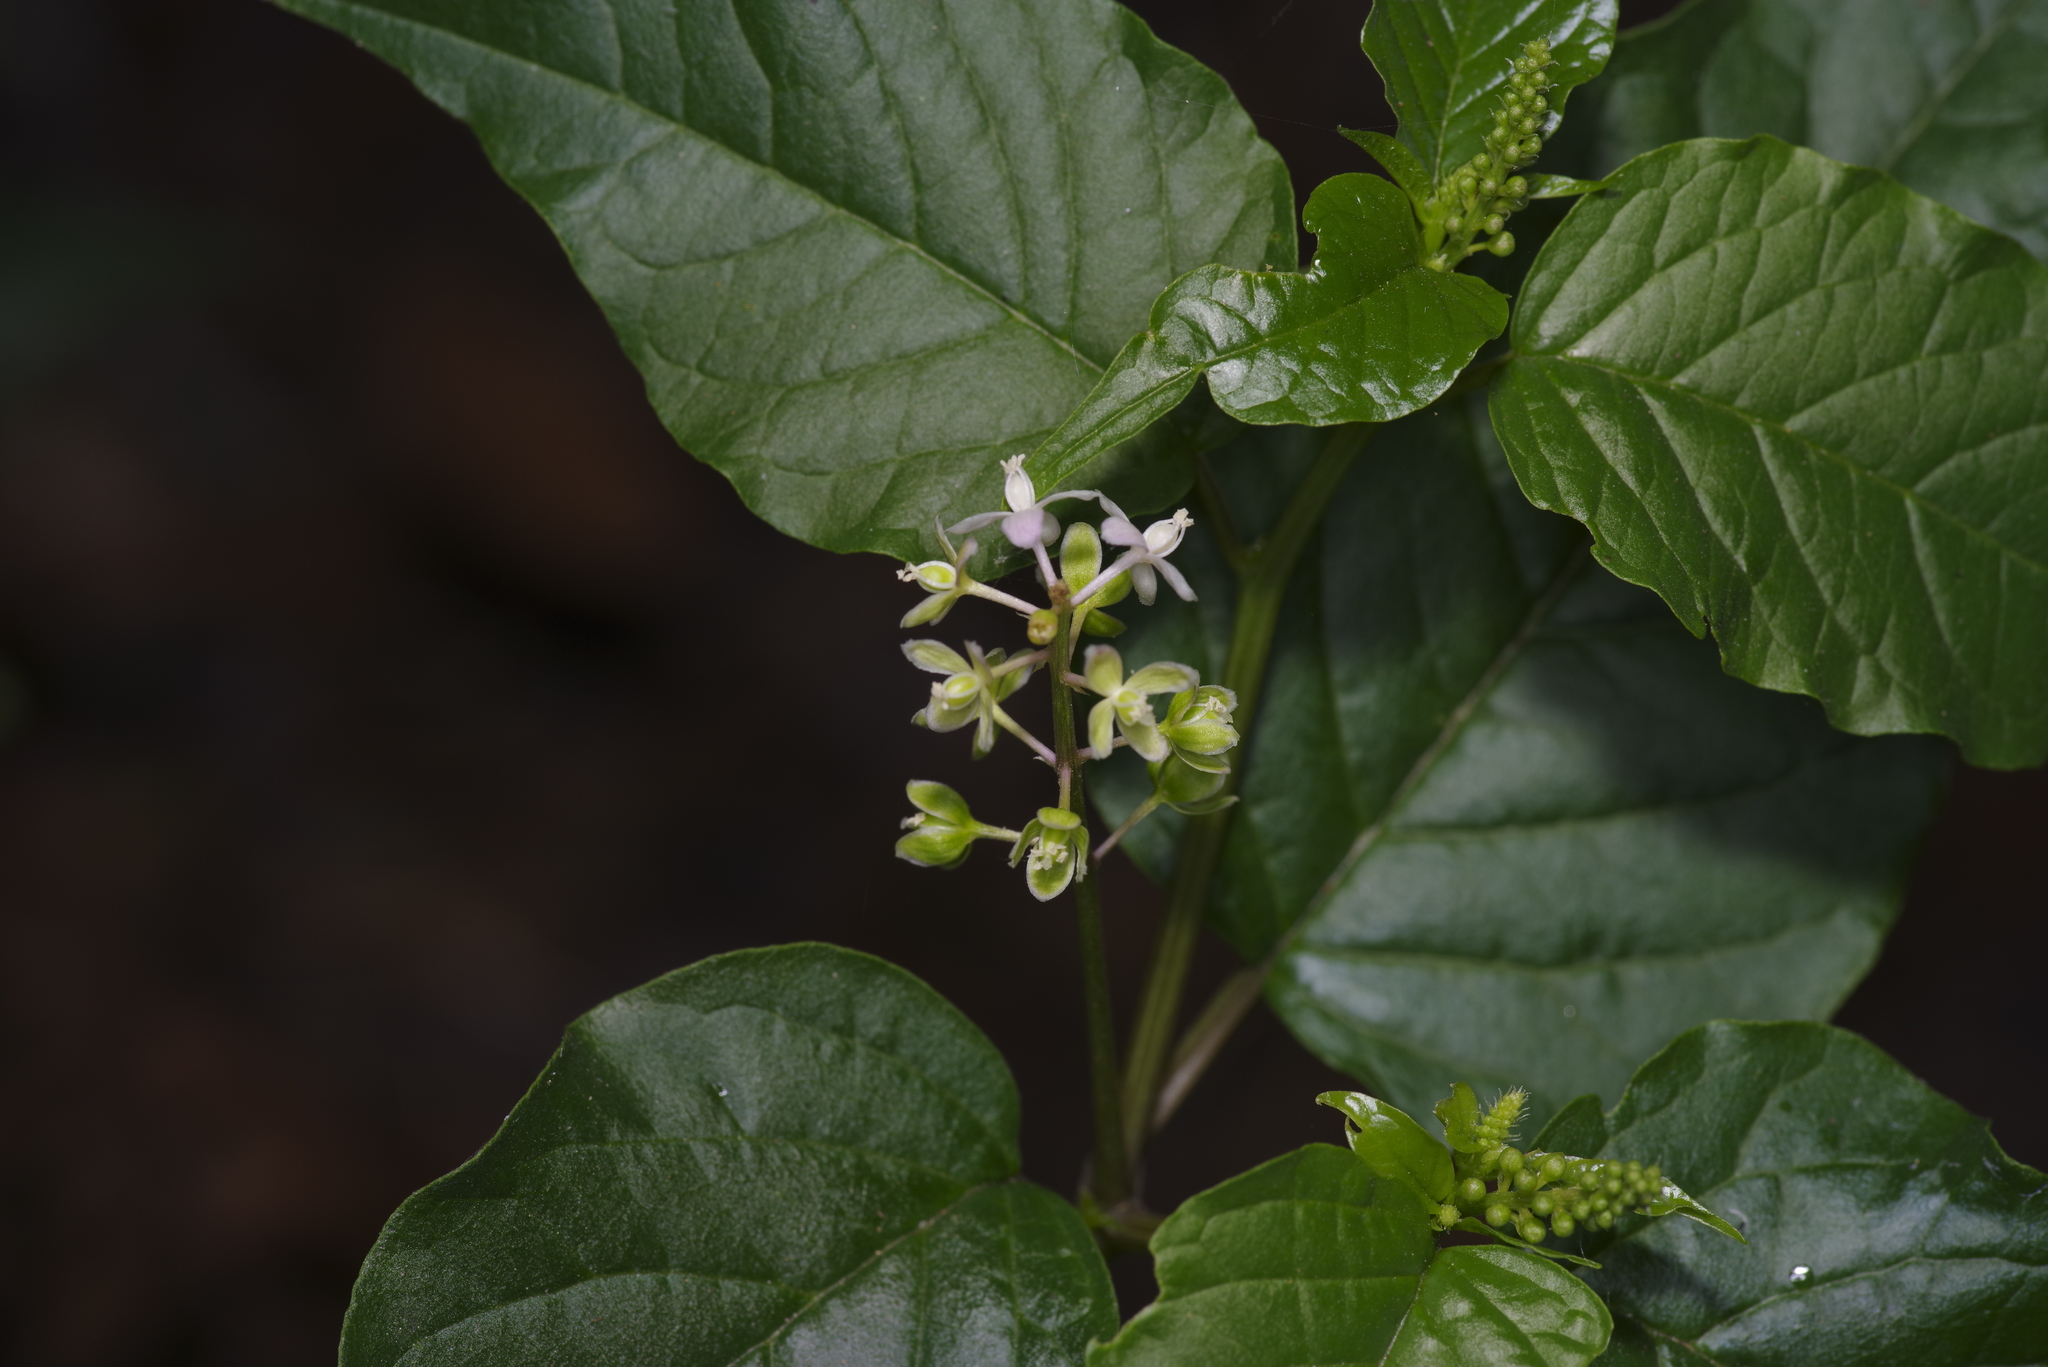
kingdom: Plantae
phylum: Tracheophyta
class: Magnoliopsida
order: Caryophyllales
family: Phytolaccaceae
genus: Rivina
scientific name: Rivina humilis
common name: Rougeplant
